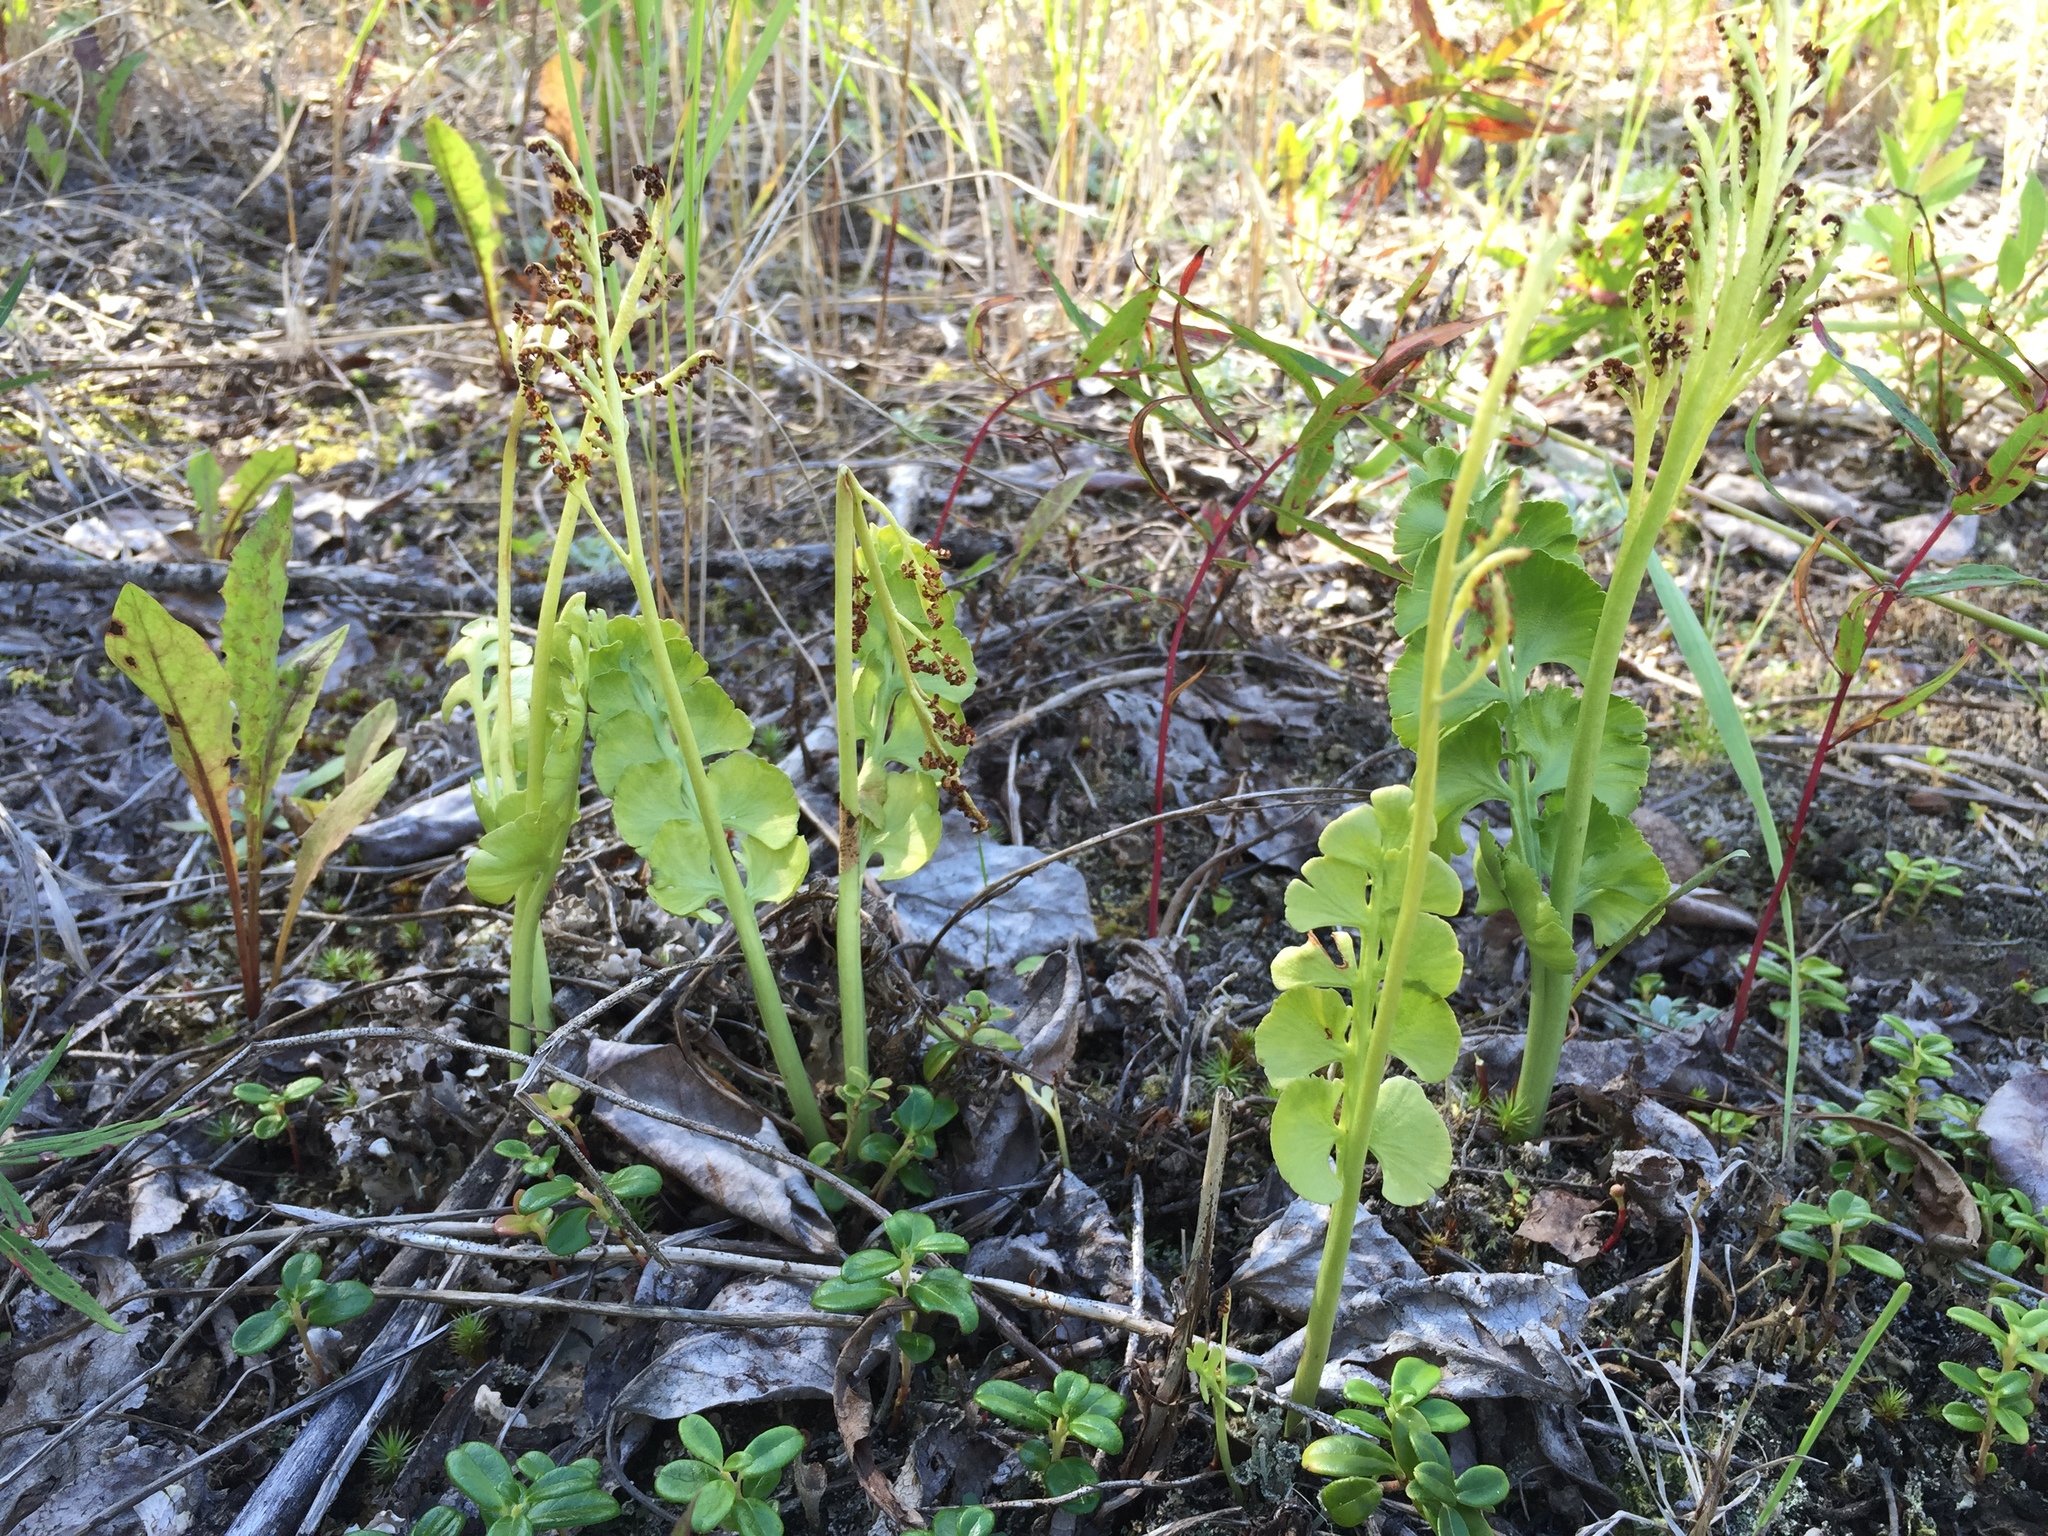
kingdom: Plantae
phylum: Tracheophyta
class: Polypodiopsida
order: Ophioglossales
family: Ophioglossaceae
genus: Botrychium
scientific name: Botrychium neolunaria
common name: New world moonwort
